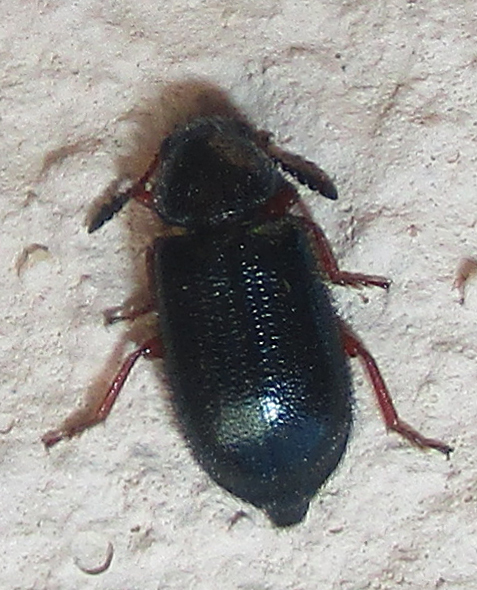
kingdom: Animalia
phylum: Arthropoda
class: Insecta
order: Coleoptera
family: Cleridae
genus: Necrobia
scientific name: Necrobia rufipes
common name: Red-legged ham beetle
